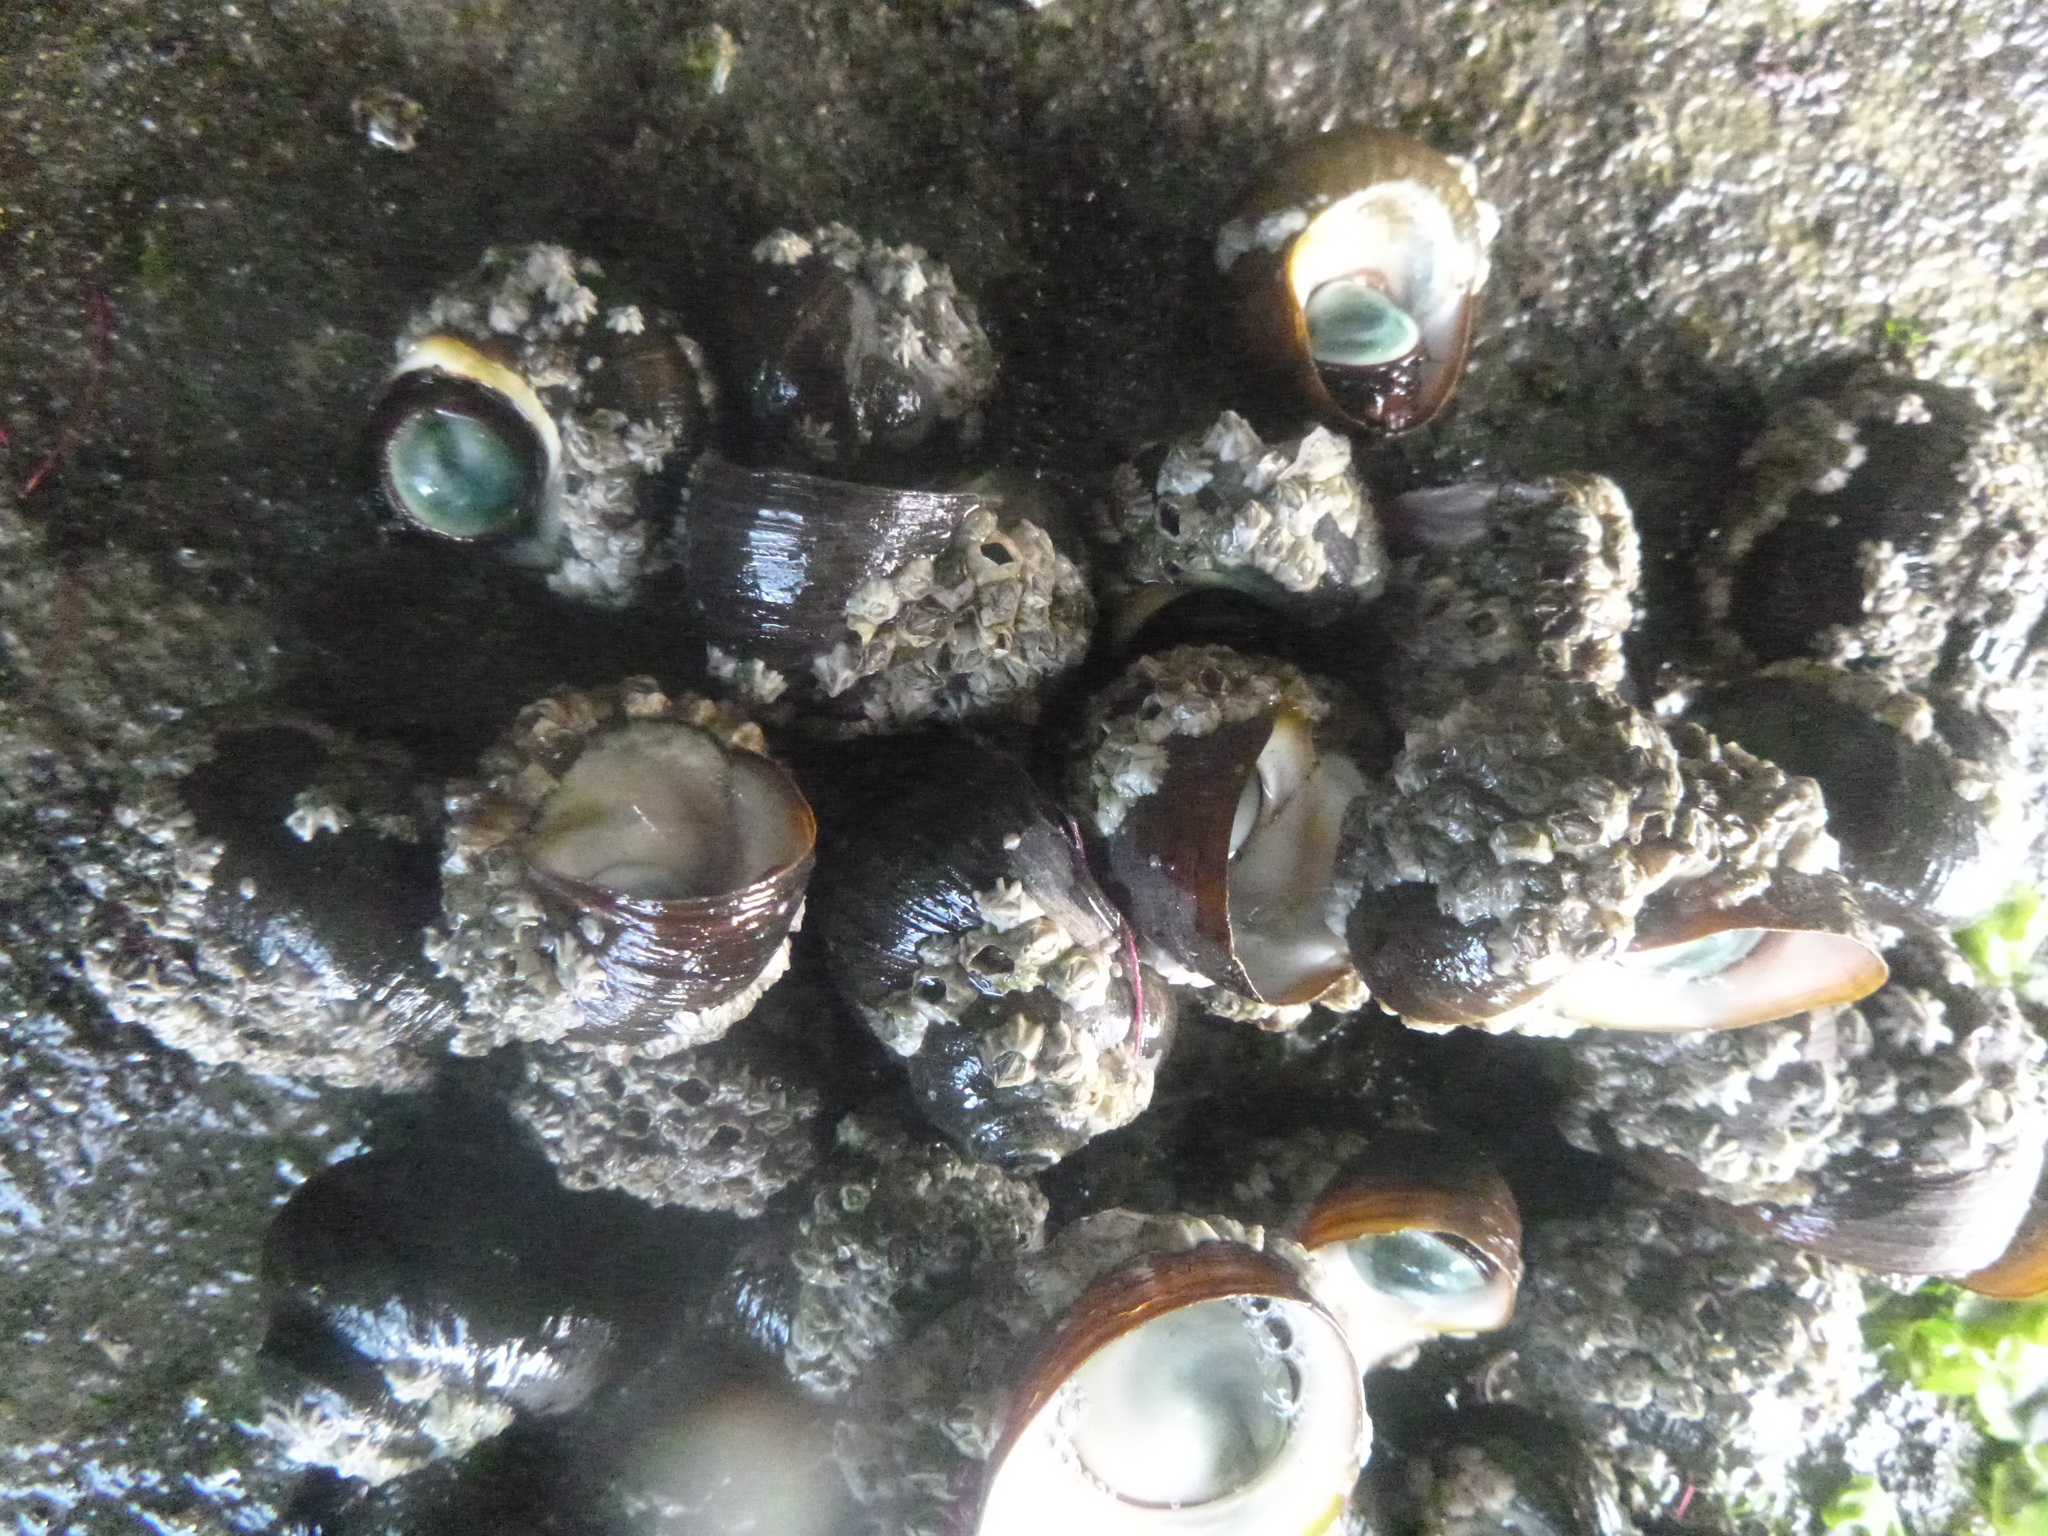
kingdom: Animalia
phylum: Mollusca
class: Gastropoda
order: Trochida
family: Turbinidae
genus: Lunella
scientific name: Lunella smaragda
